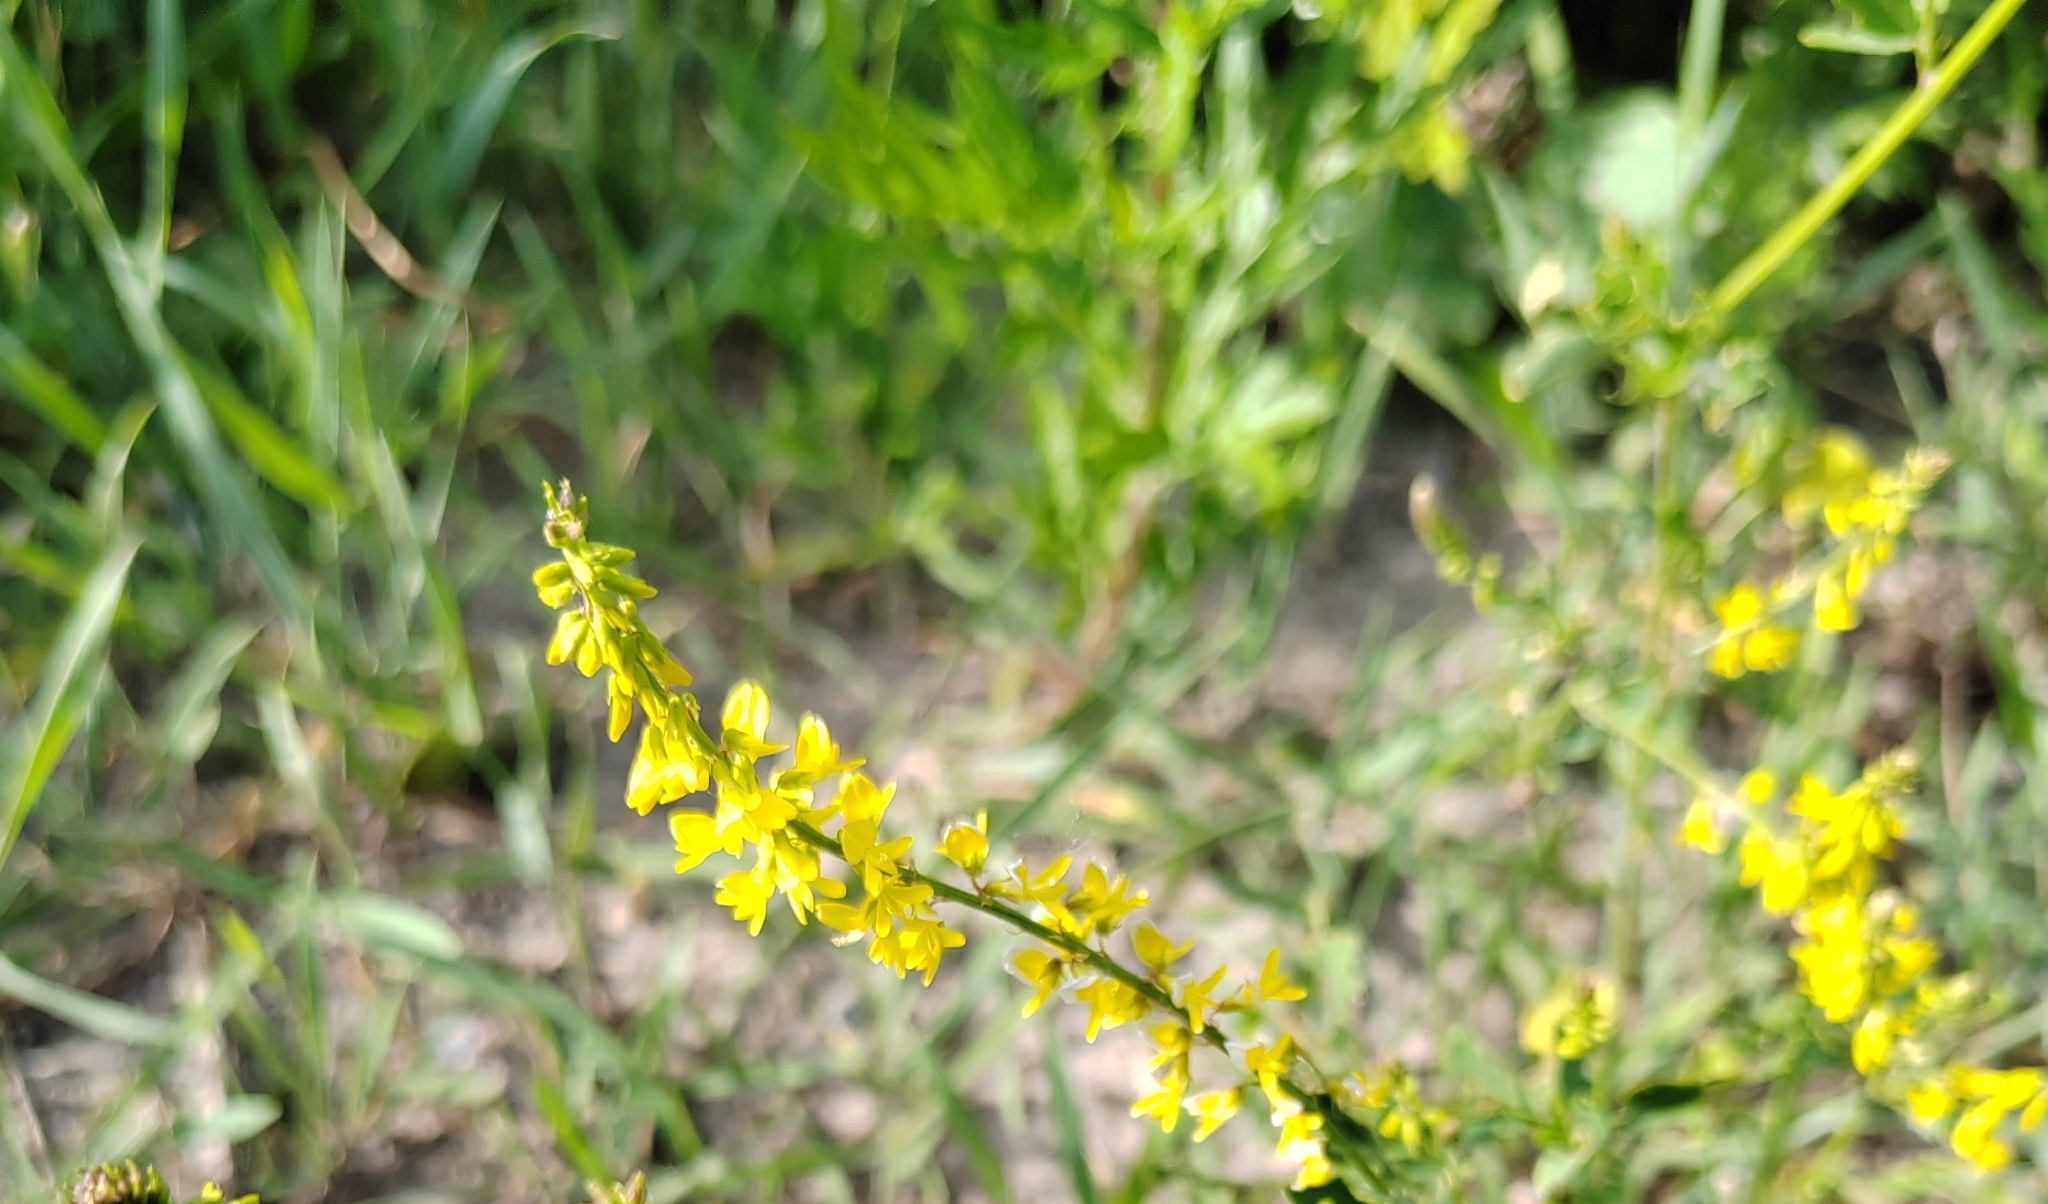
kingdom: Plantae
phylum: Tracheophyta
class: Magnoliopsida
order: Fabales
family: Fabaceae
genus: Melilotus
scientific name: Melilotus officinalis
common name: Sweetclover
